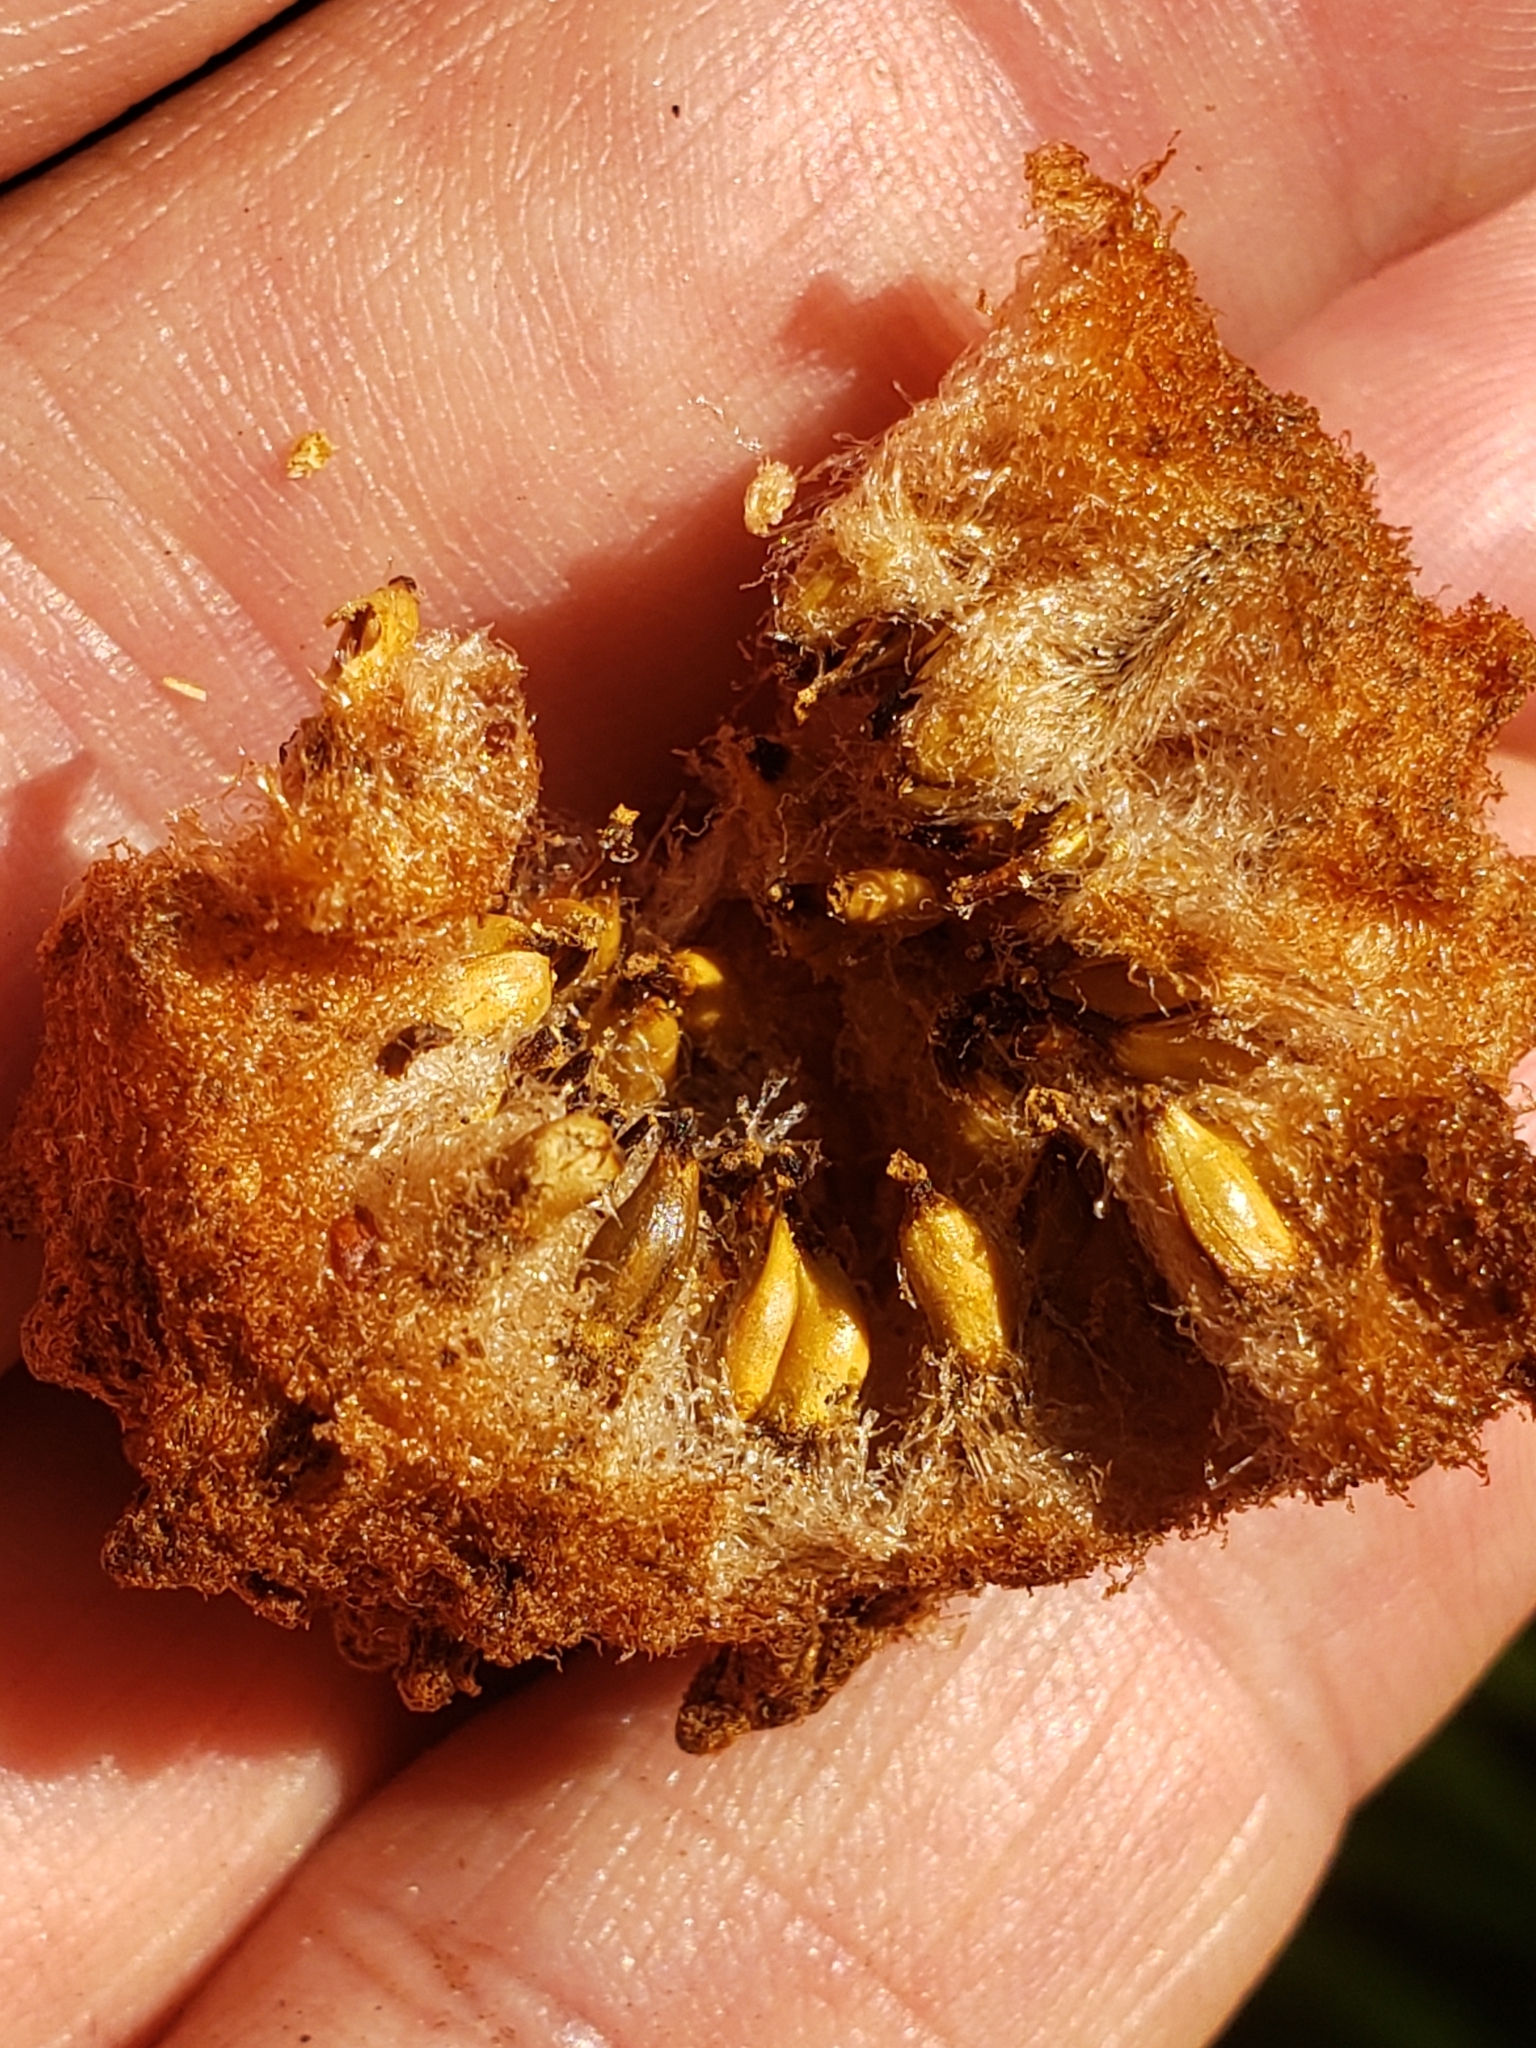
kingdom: Animalia
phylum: Arthropoda
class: Insecta
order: Hymenoptera
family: Cynipidae
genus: Callirhytis
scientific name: Callirhytis
